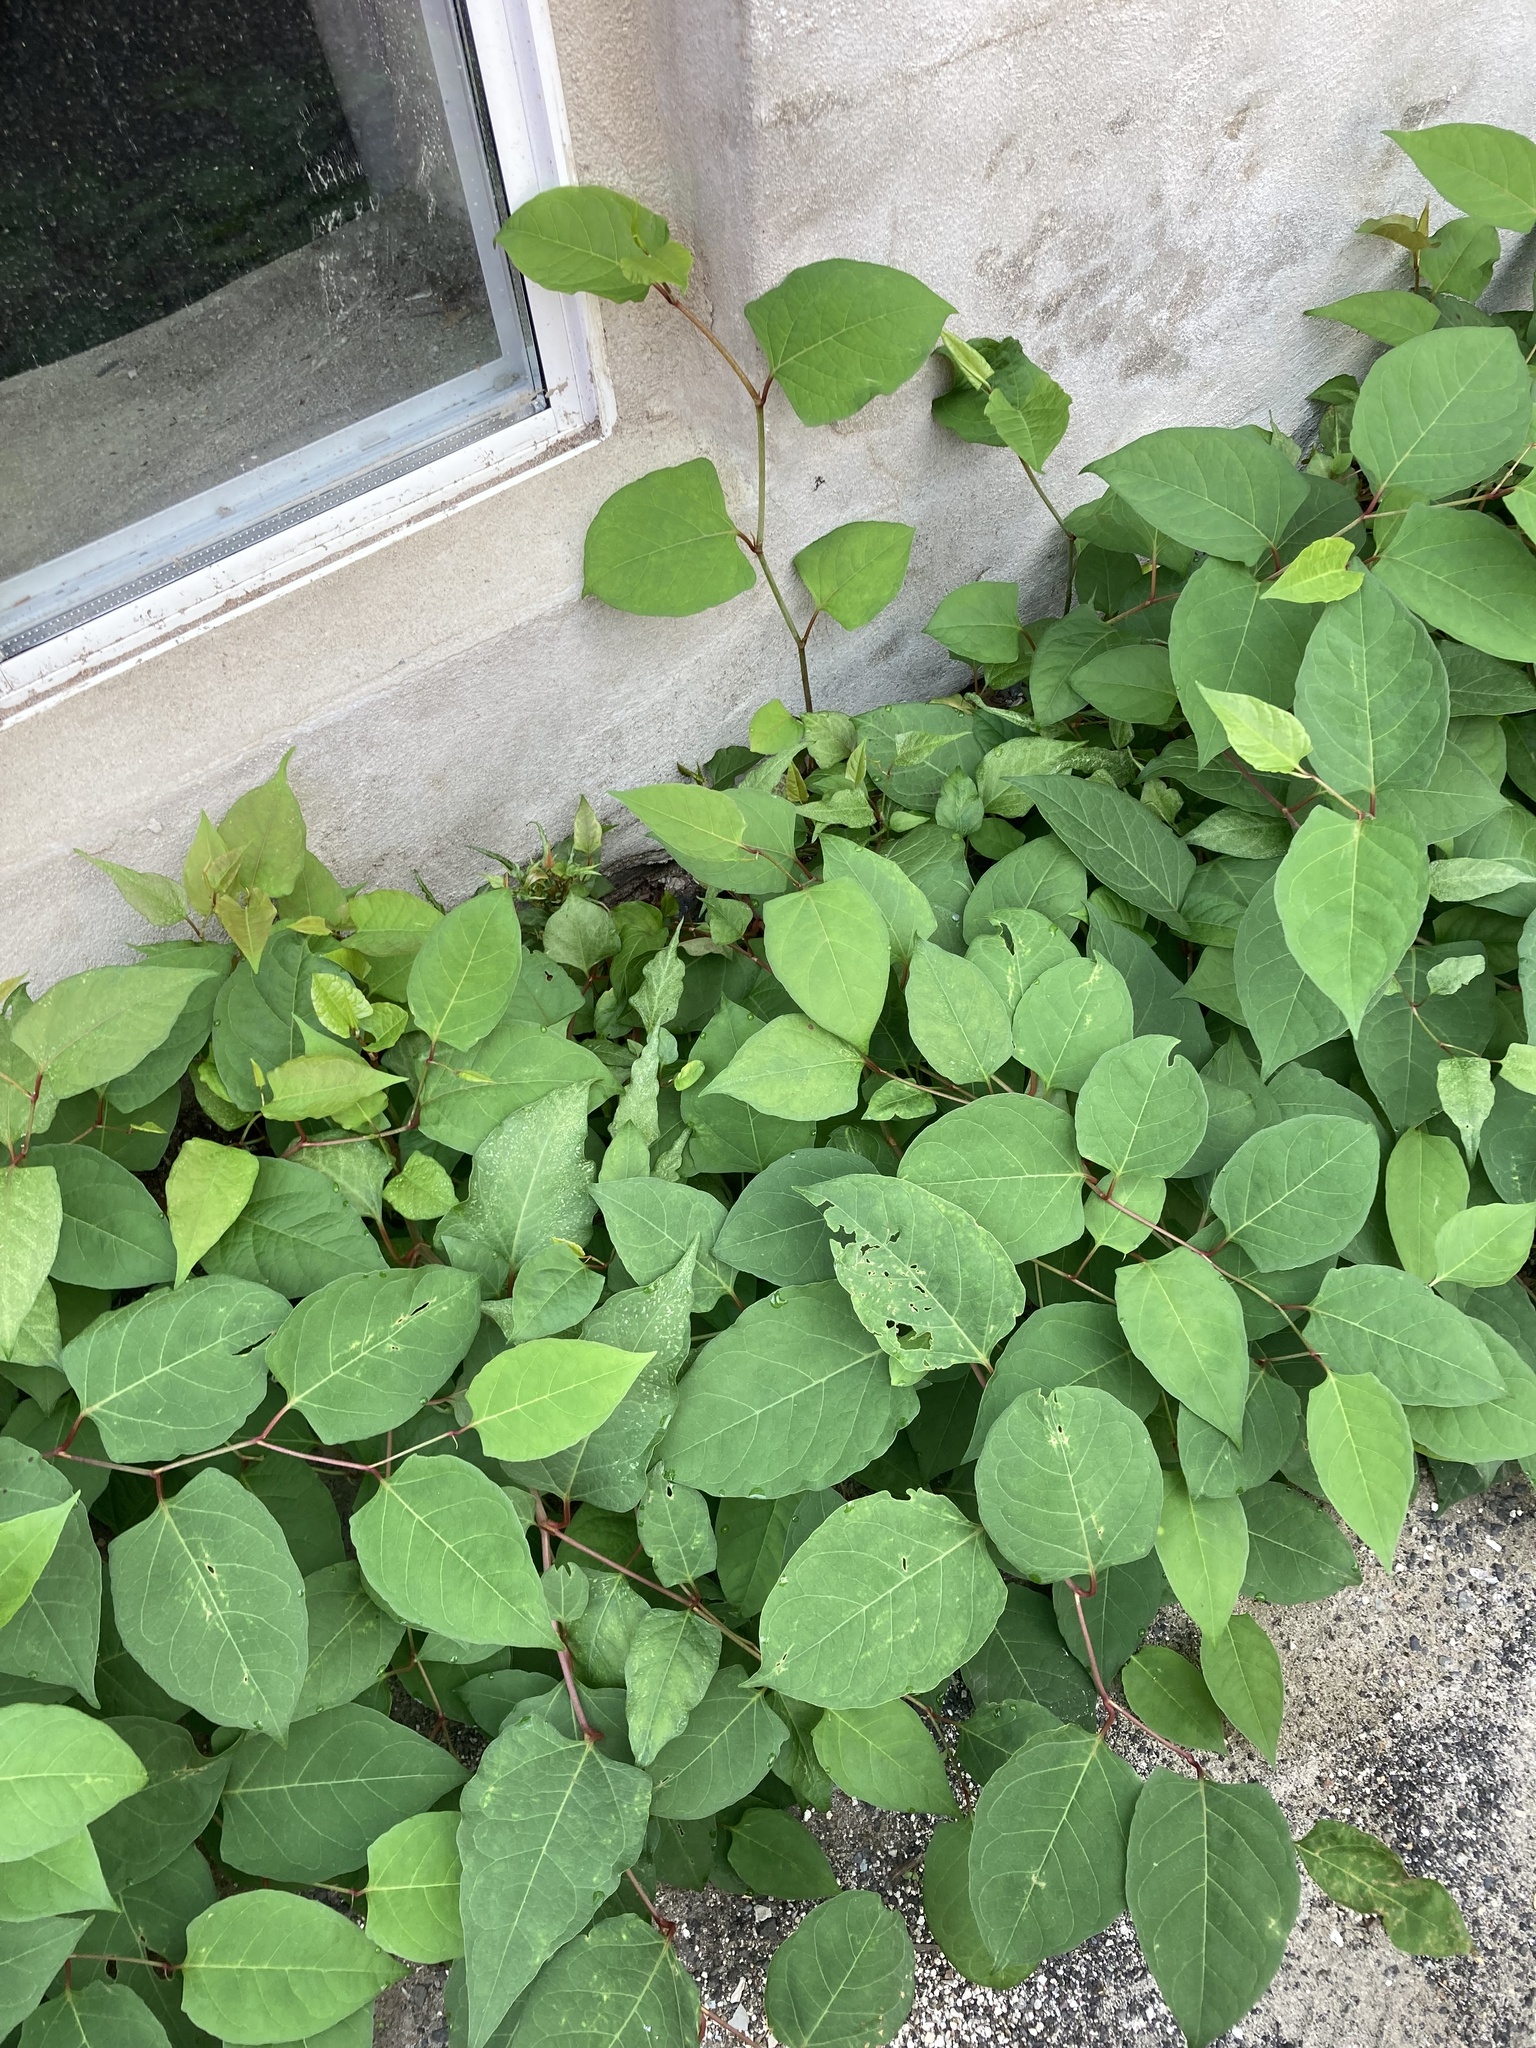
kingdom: Plantae
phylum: Tracheophyta
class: Magnoliopsida
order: Caryophyllales
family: Polygonaceae
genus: Reynoutria
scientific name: Reynoutria japonica
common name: Japanese knotweed
